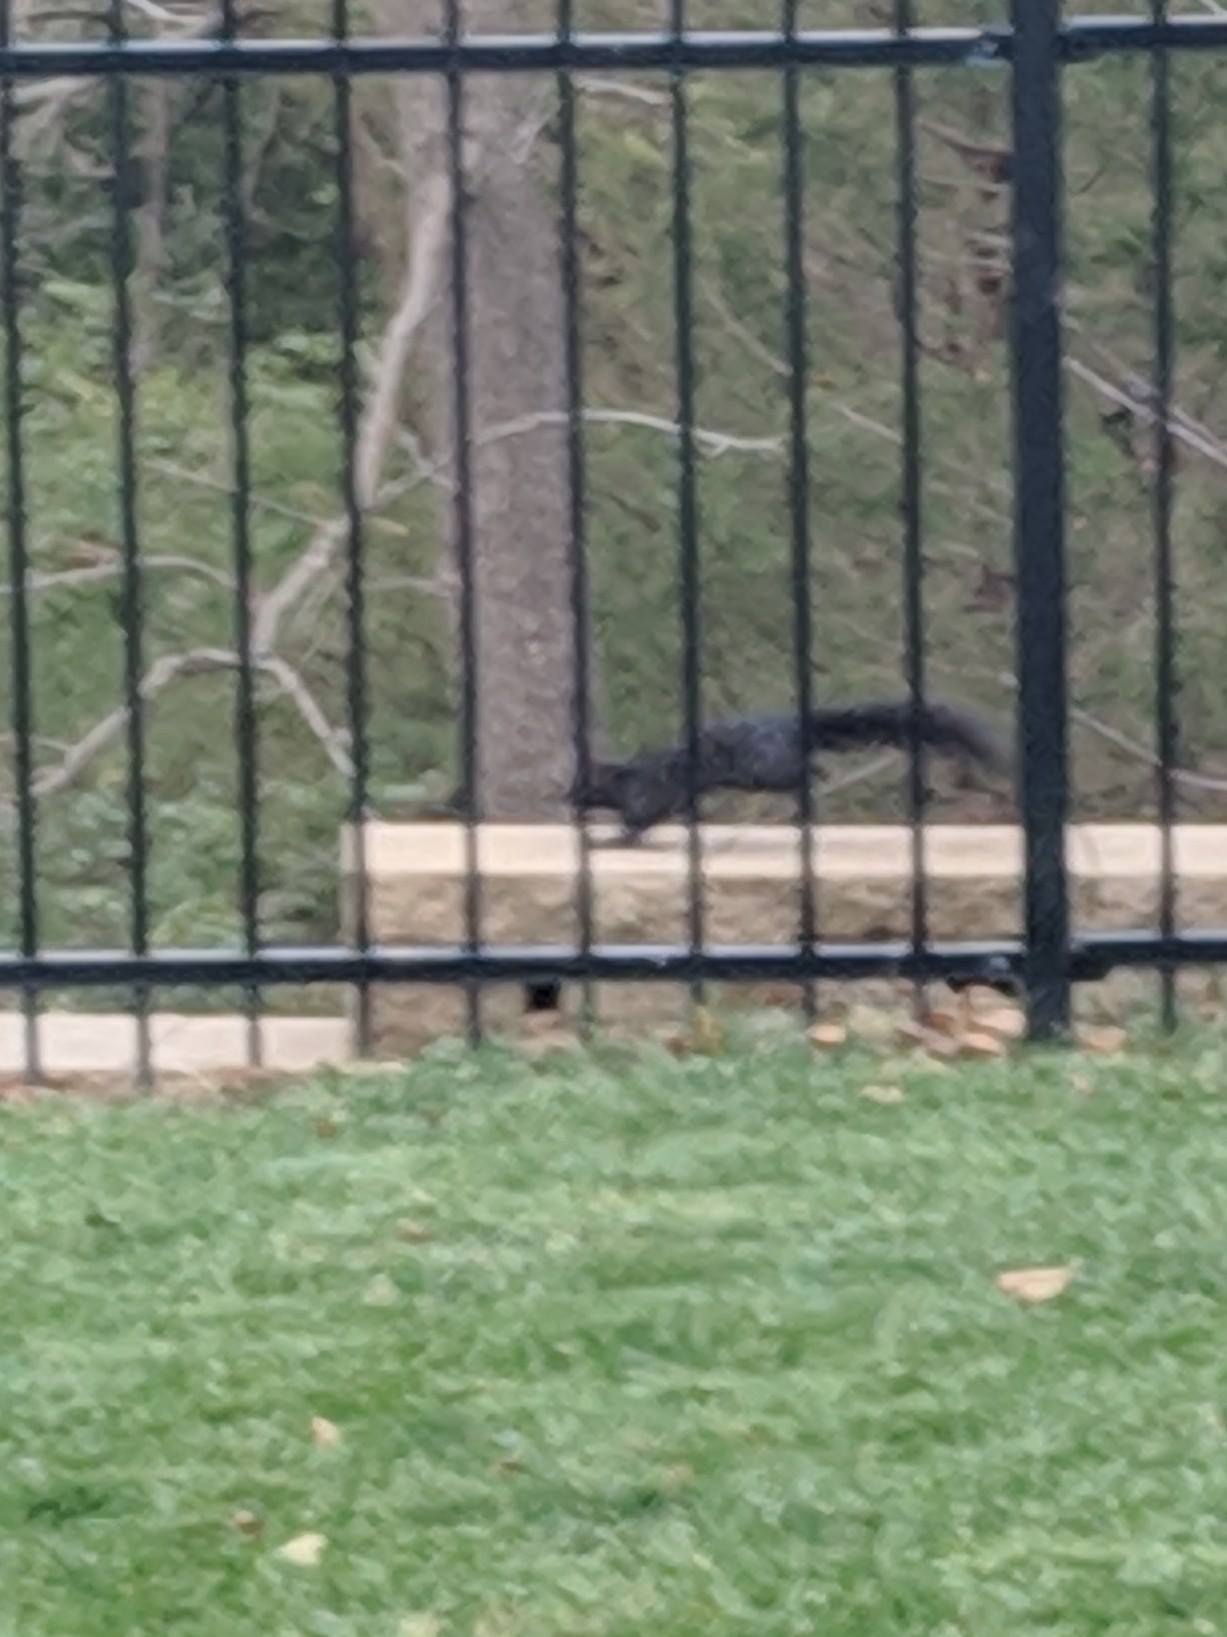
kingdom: Animalia
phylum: Chordata
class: Mammalia
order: Rodentia
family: Sciuridae
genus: Sciurus
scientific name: Sciurus carolinensis
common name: Eastern gray squirrel
